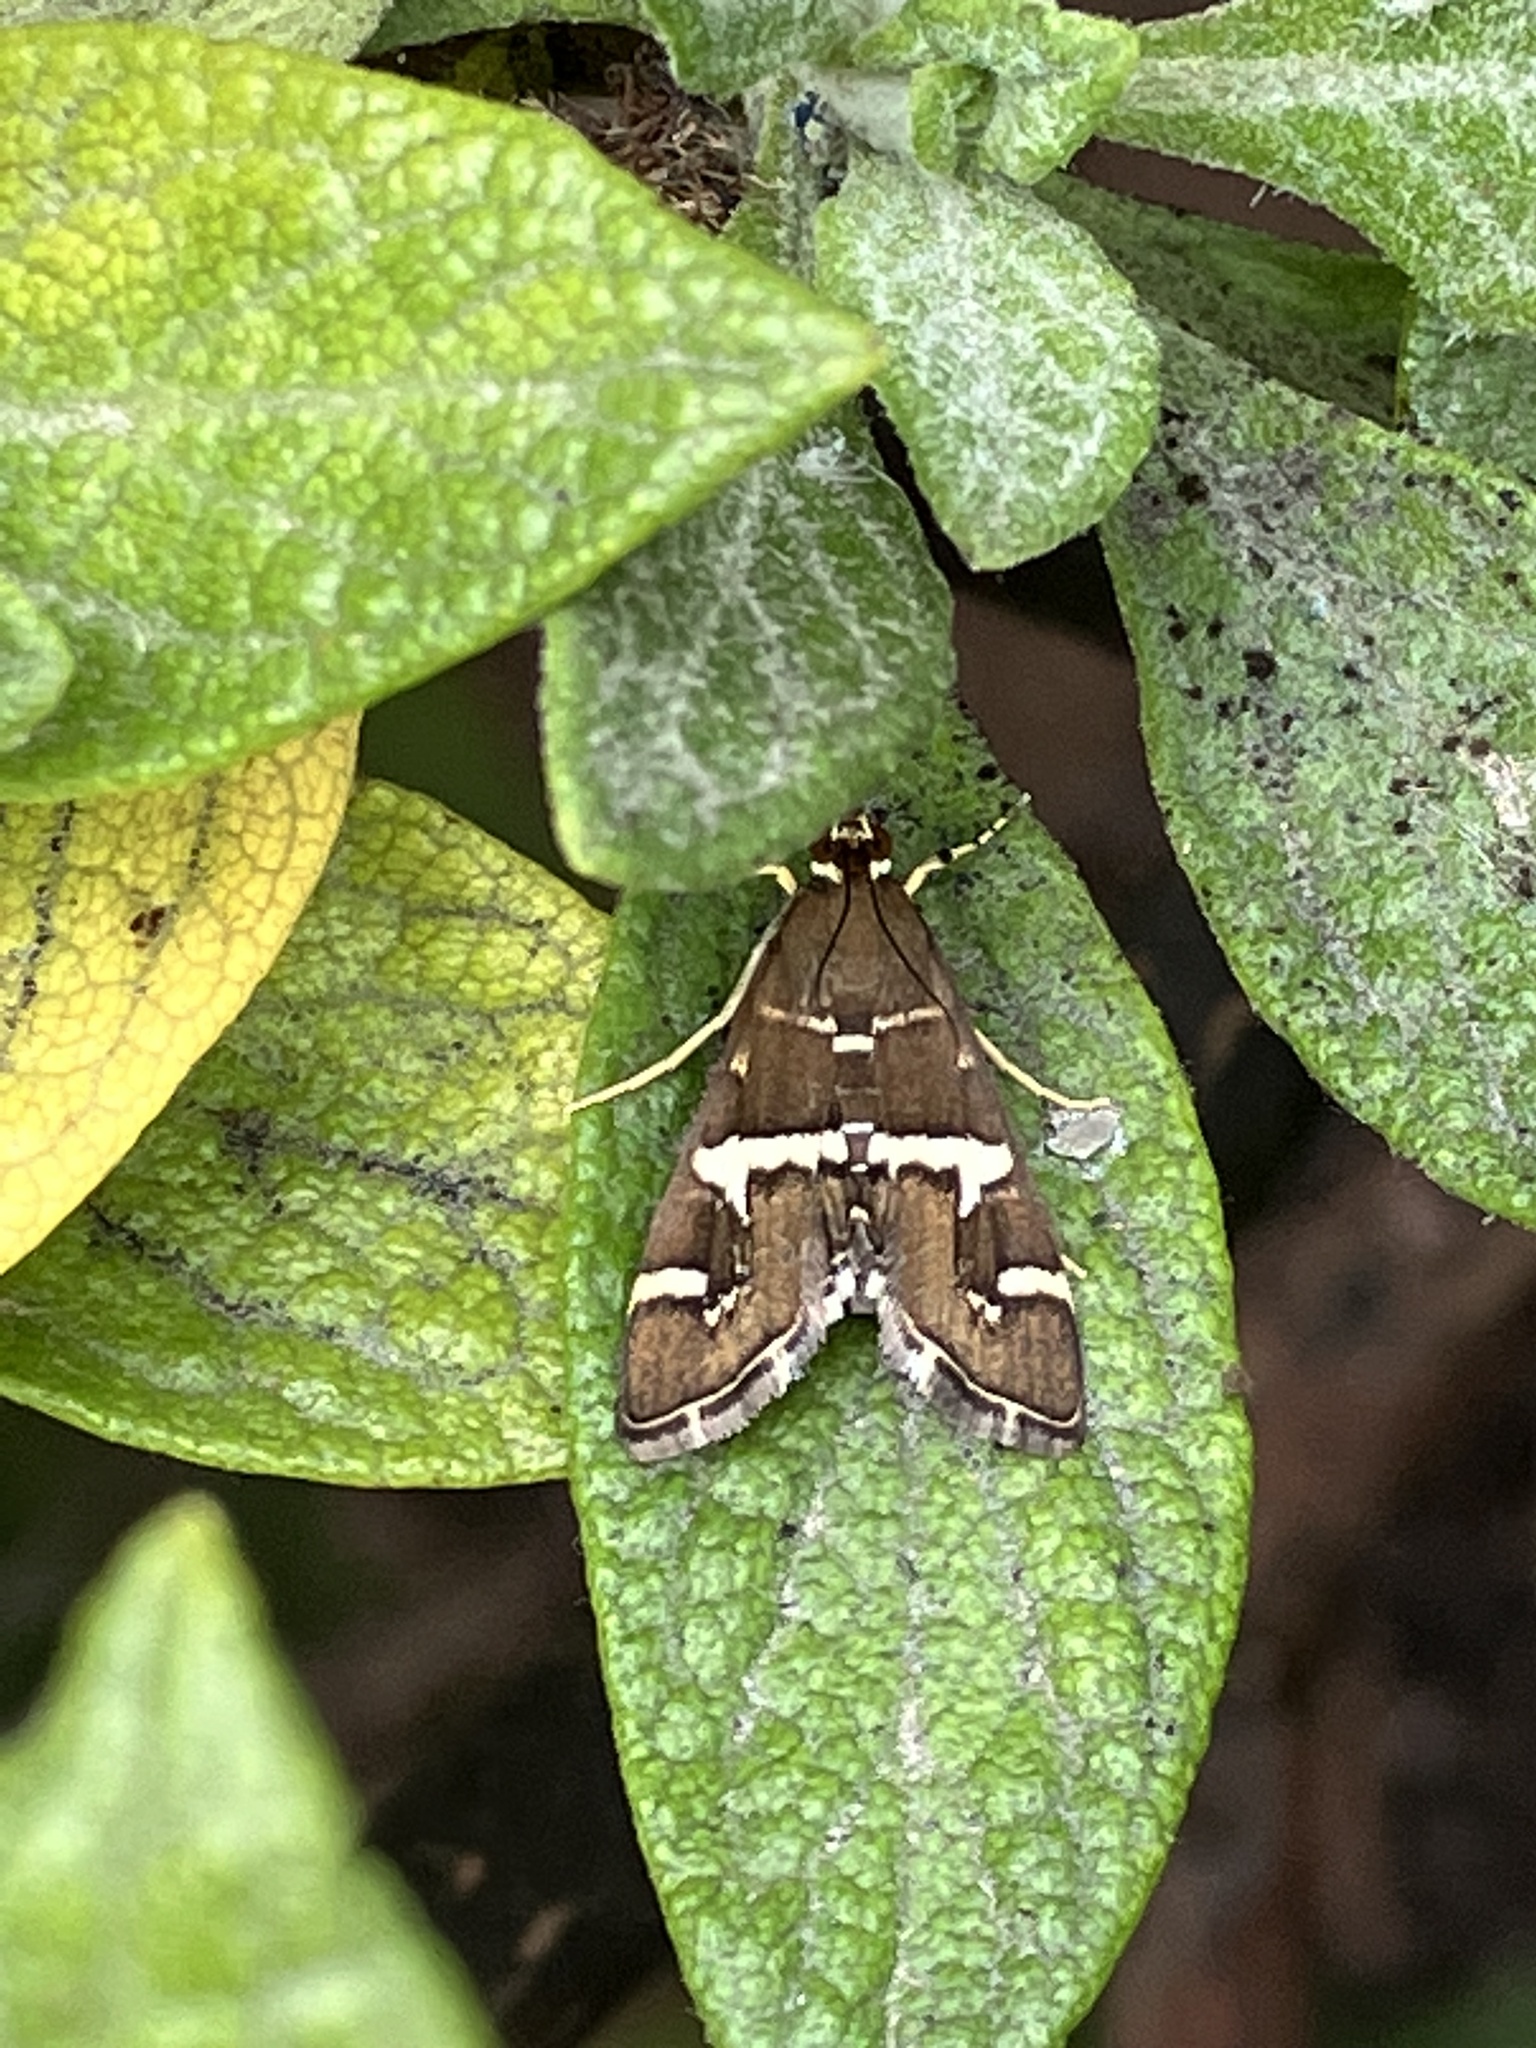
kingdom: Animalia
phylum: Arthropoda
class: Insecta
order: Lepidoptera
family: Crambidae
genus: Spoladea
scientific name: Spoladea recurvalis
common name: Beet webworm moth
